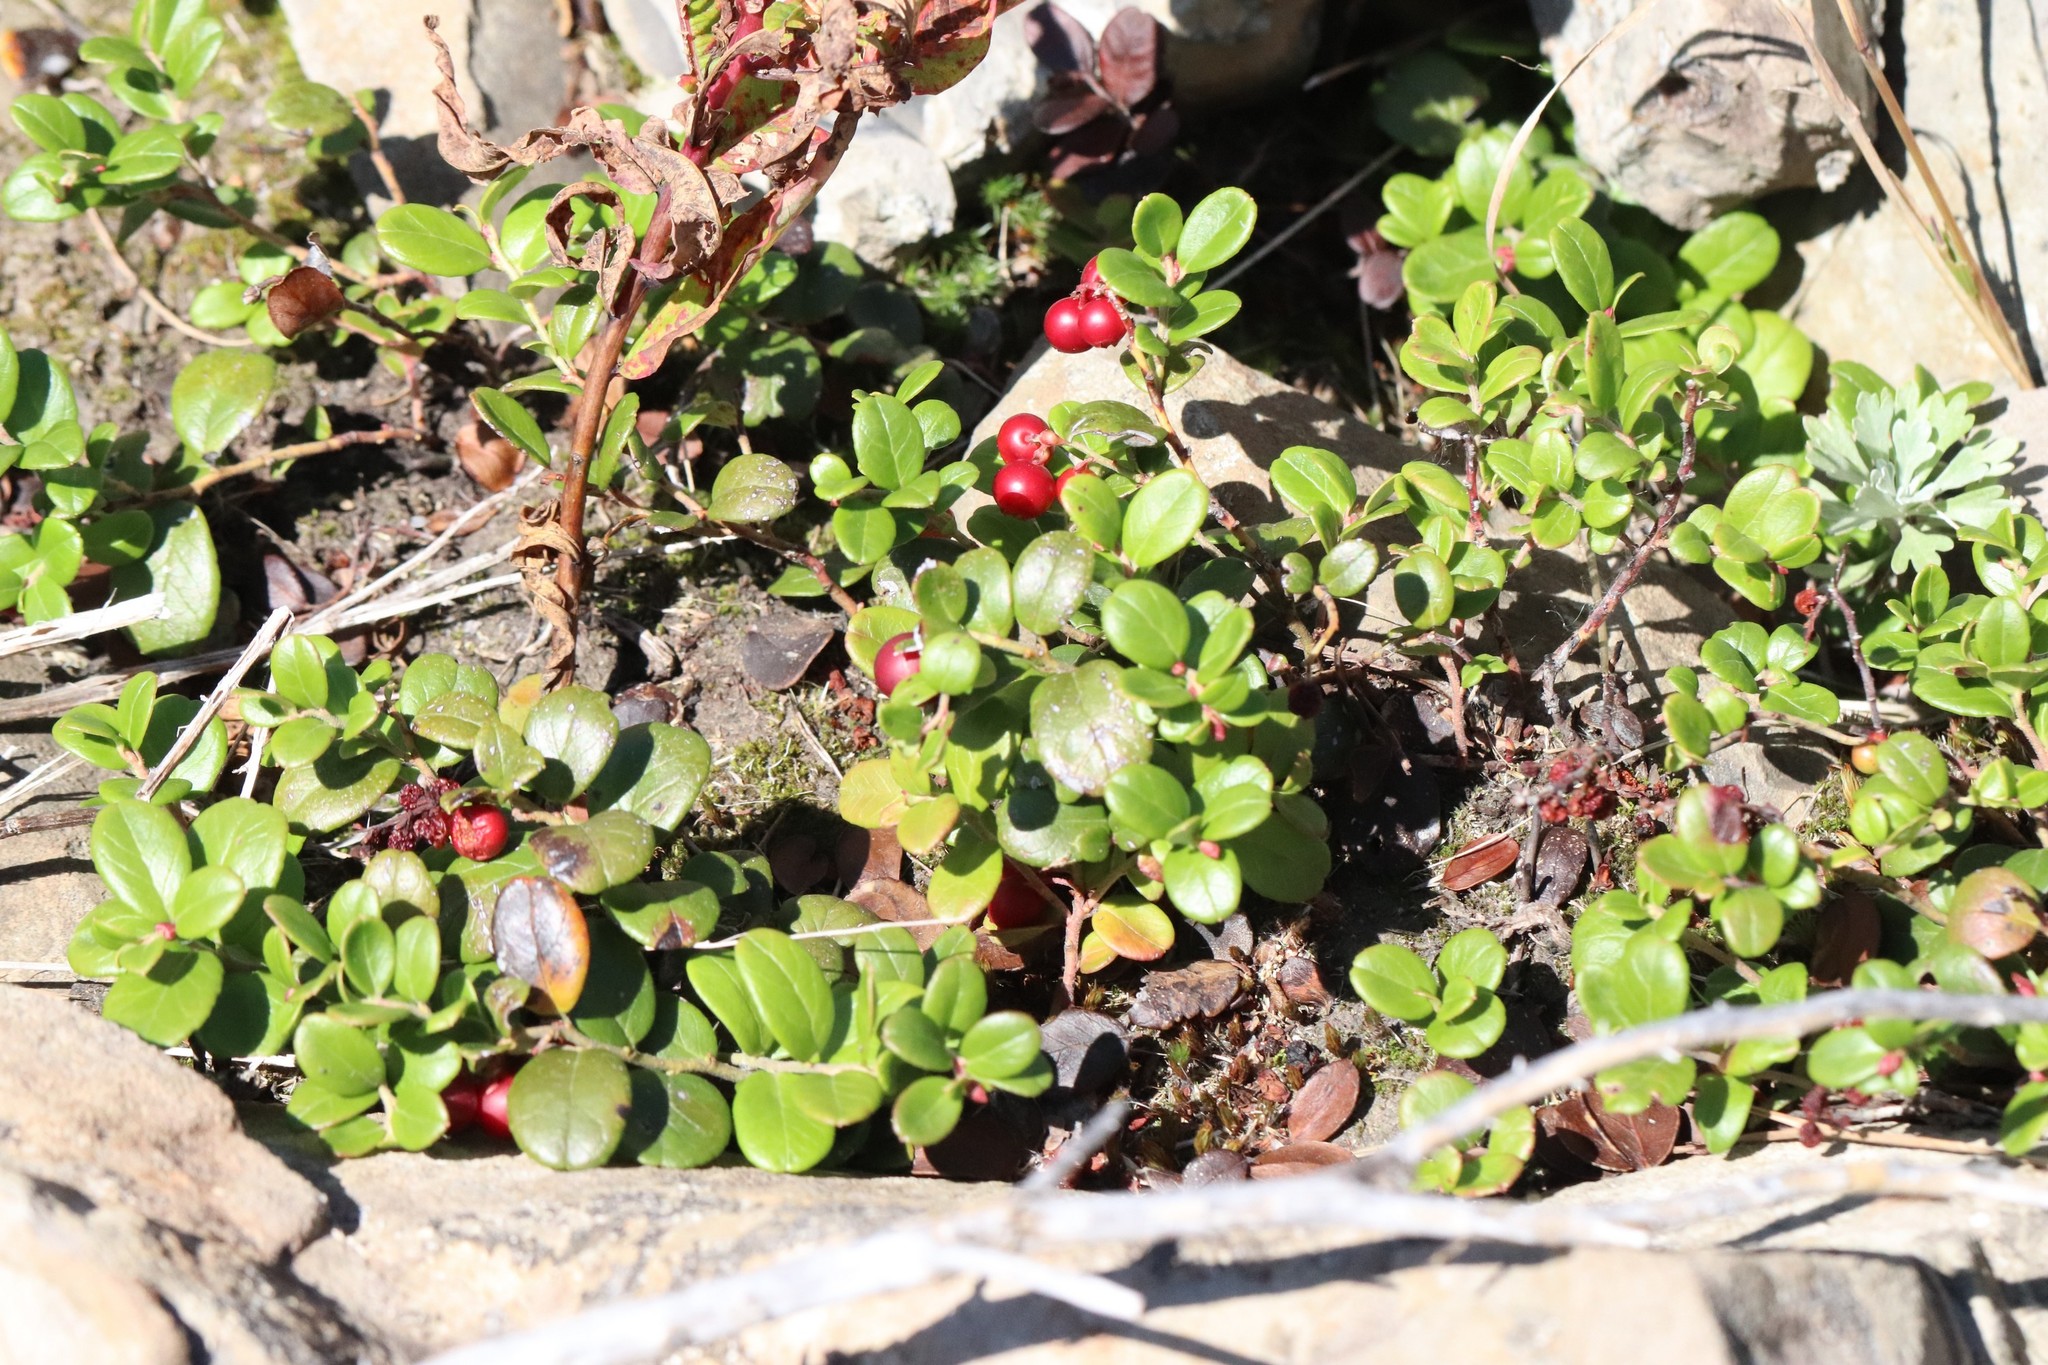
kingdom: Plantae
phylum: Tracheophyta
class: Magnoliopsida
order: Ericales
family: Ericaceae
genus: Vaccinium
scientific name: Vaccinium vitis-idaea
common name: Cowberry
